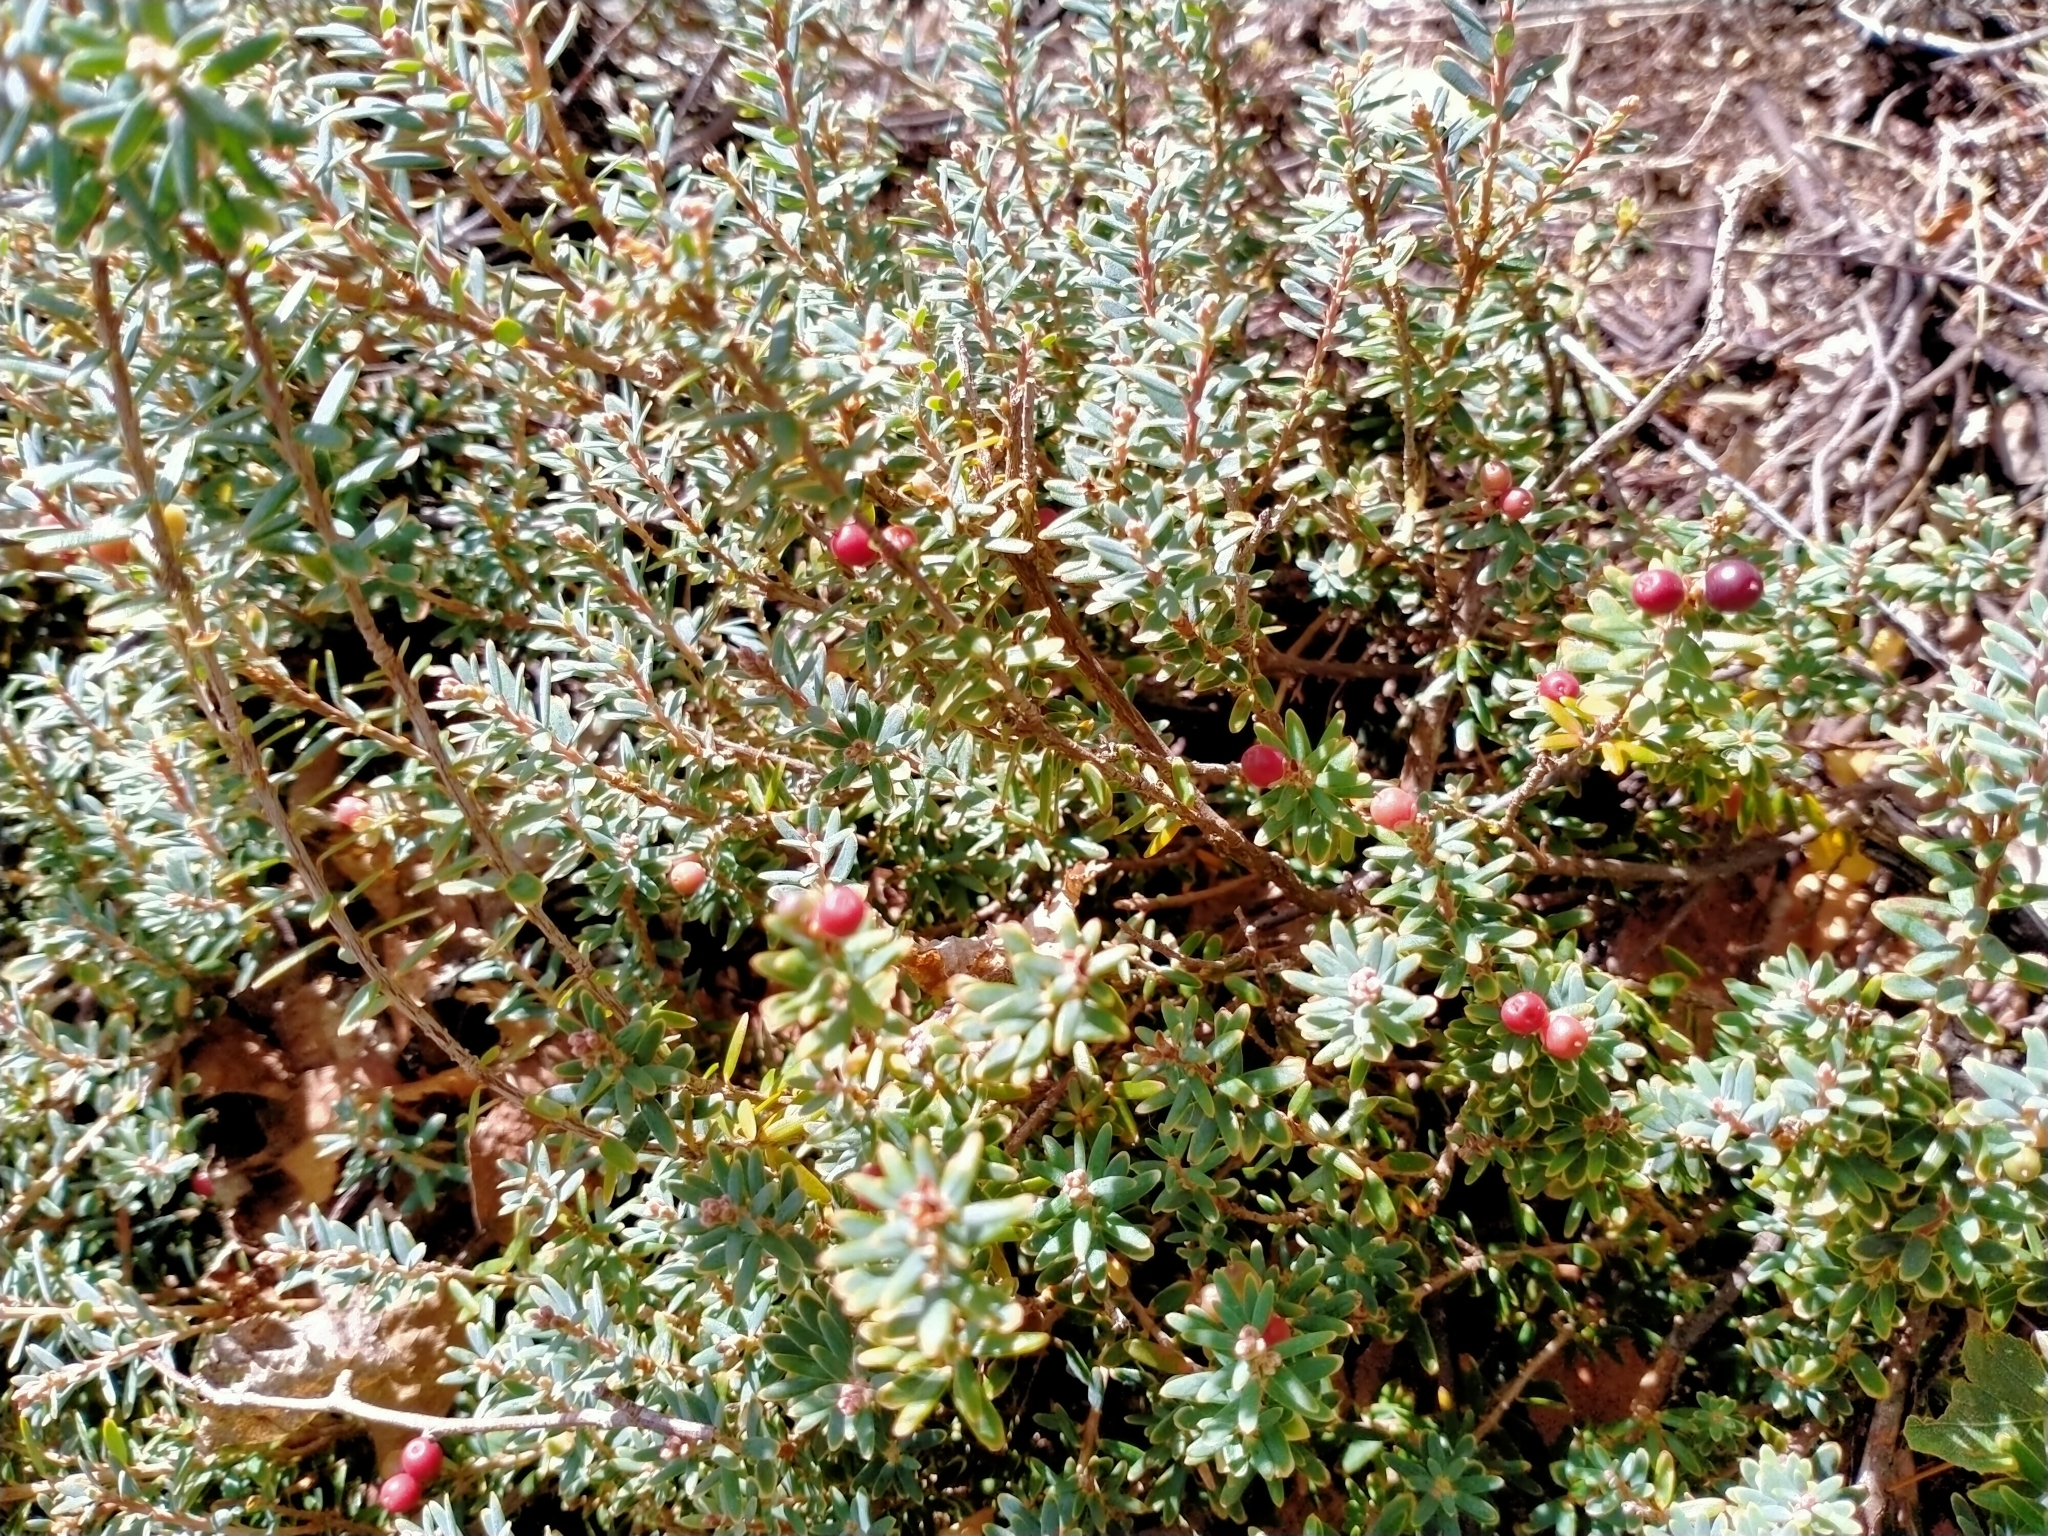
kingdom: Plantae
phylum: Tracheophyta
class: Magnoliopsida
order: Ericales
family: Ericaceae
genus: Acrothamnus
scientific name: Acrothamnus colensoi
